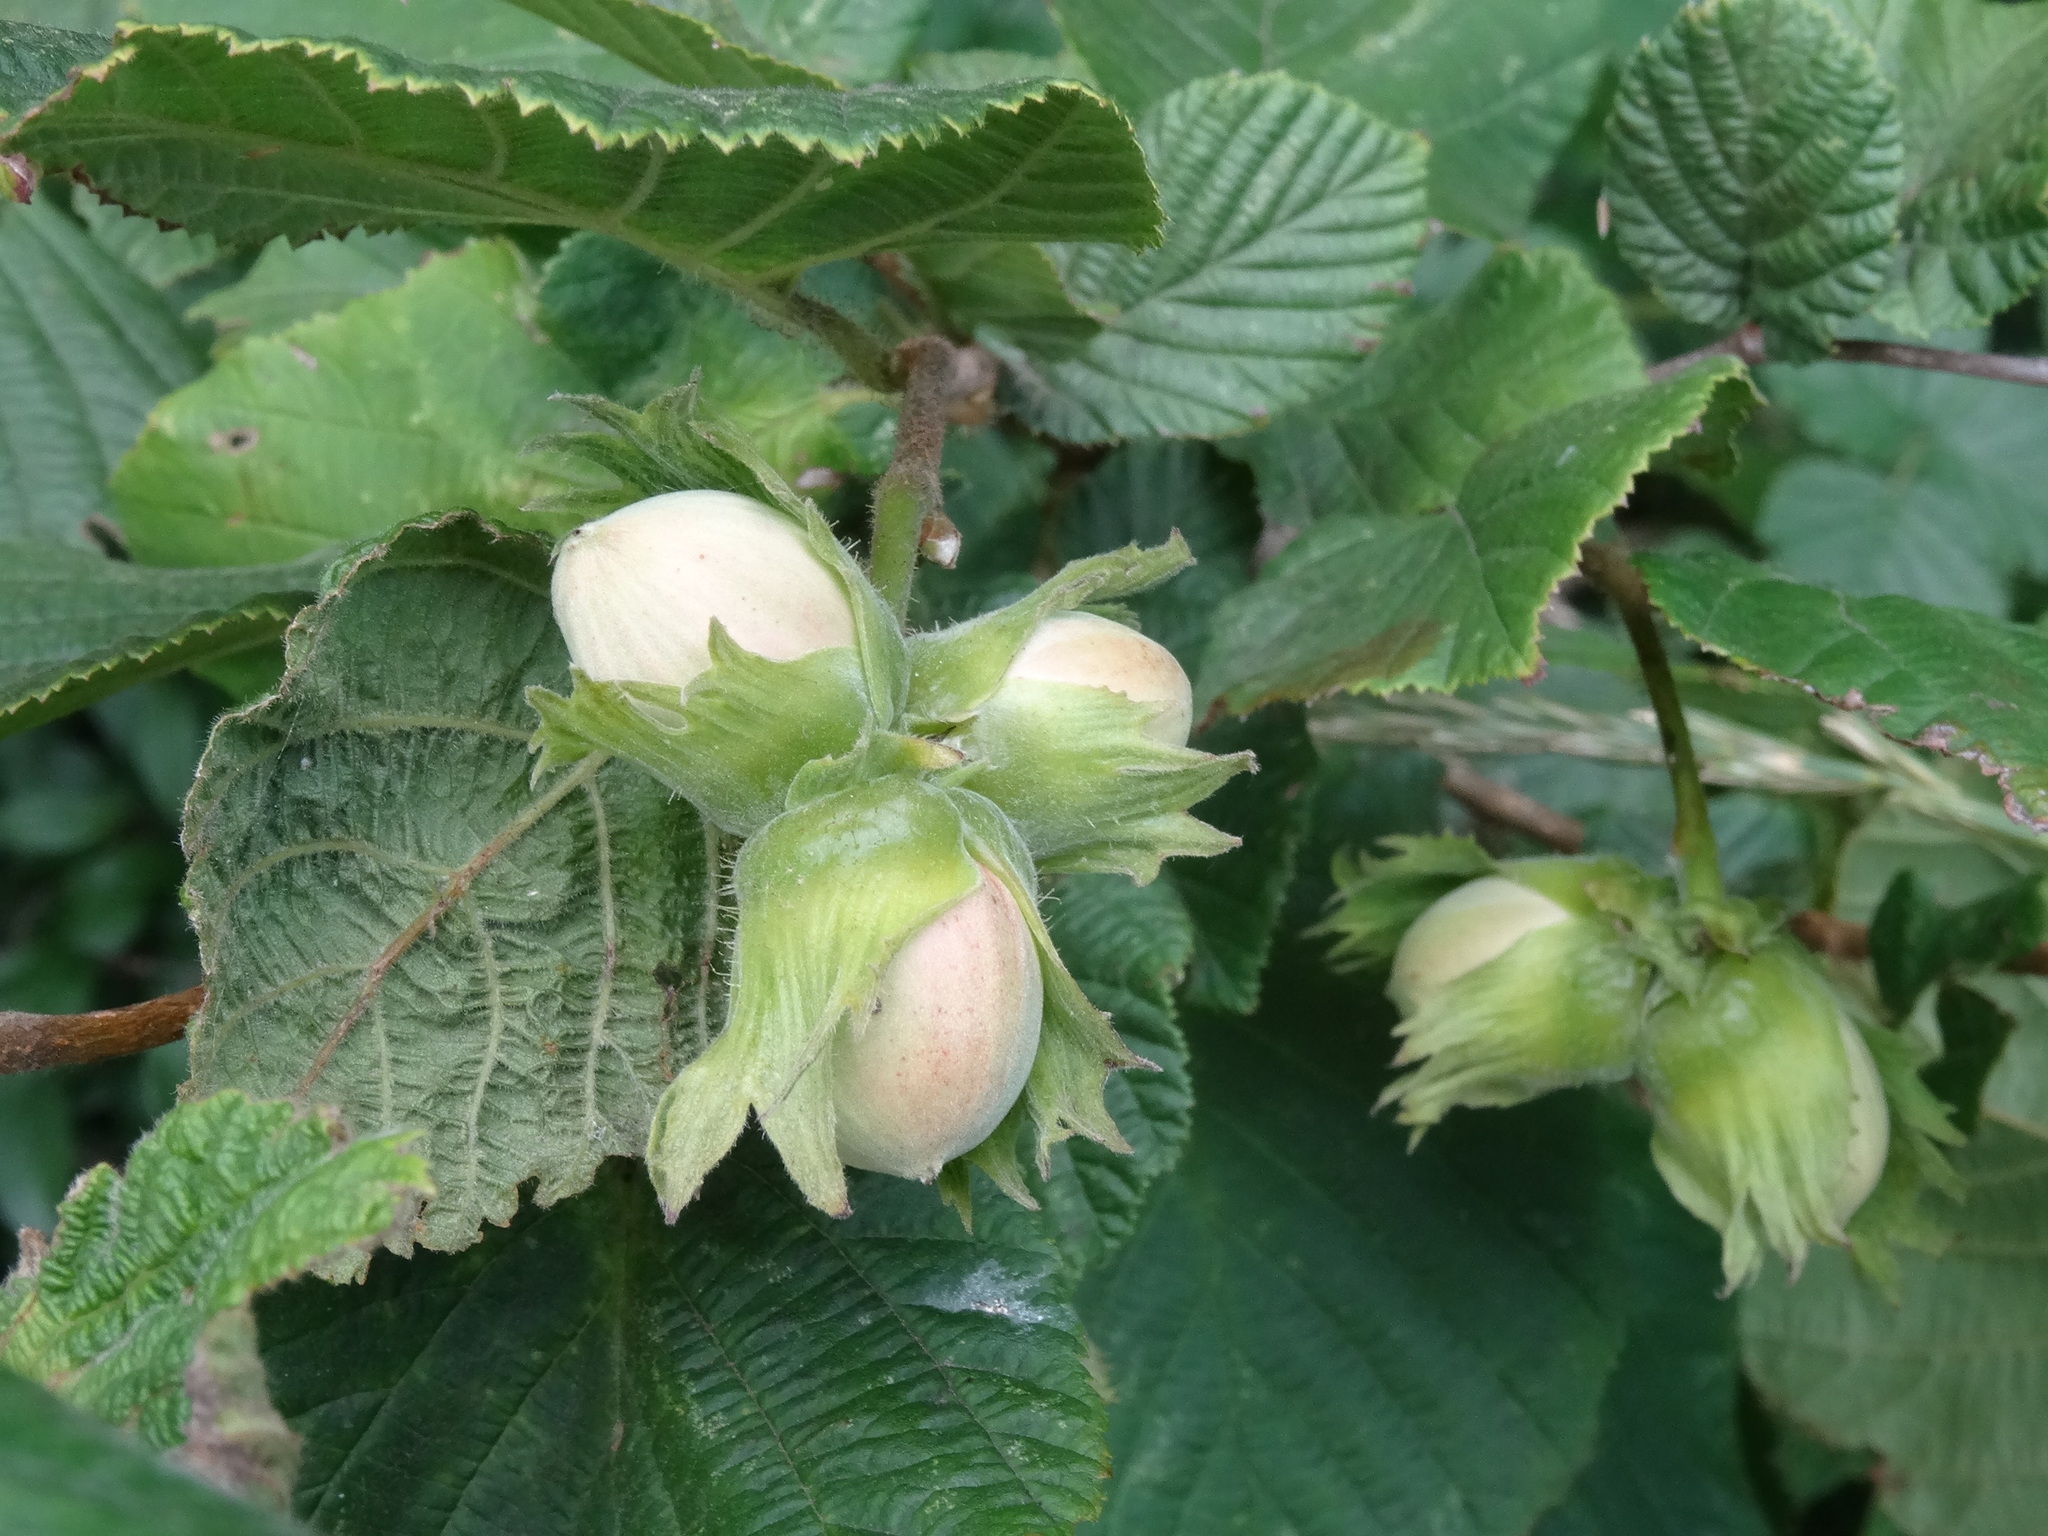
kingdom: Plantae
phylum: Tracheophyta
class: Magnoliopsida
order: Fagales
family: Betulaceae
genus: Corylus
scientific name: Corylus avellana
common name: European hazel
